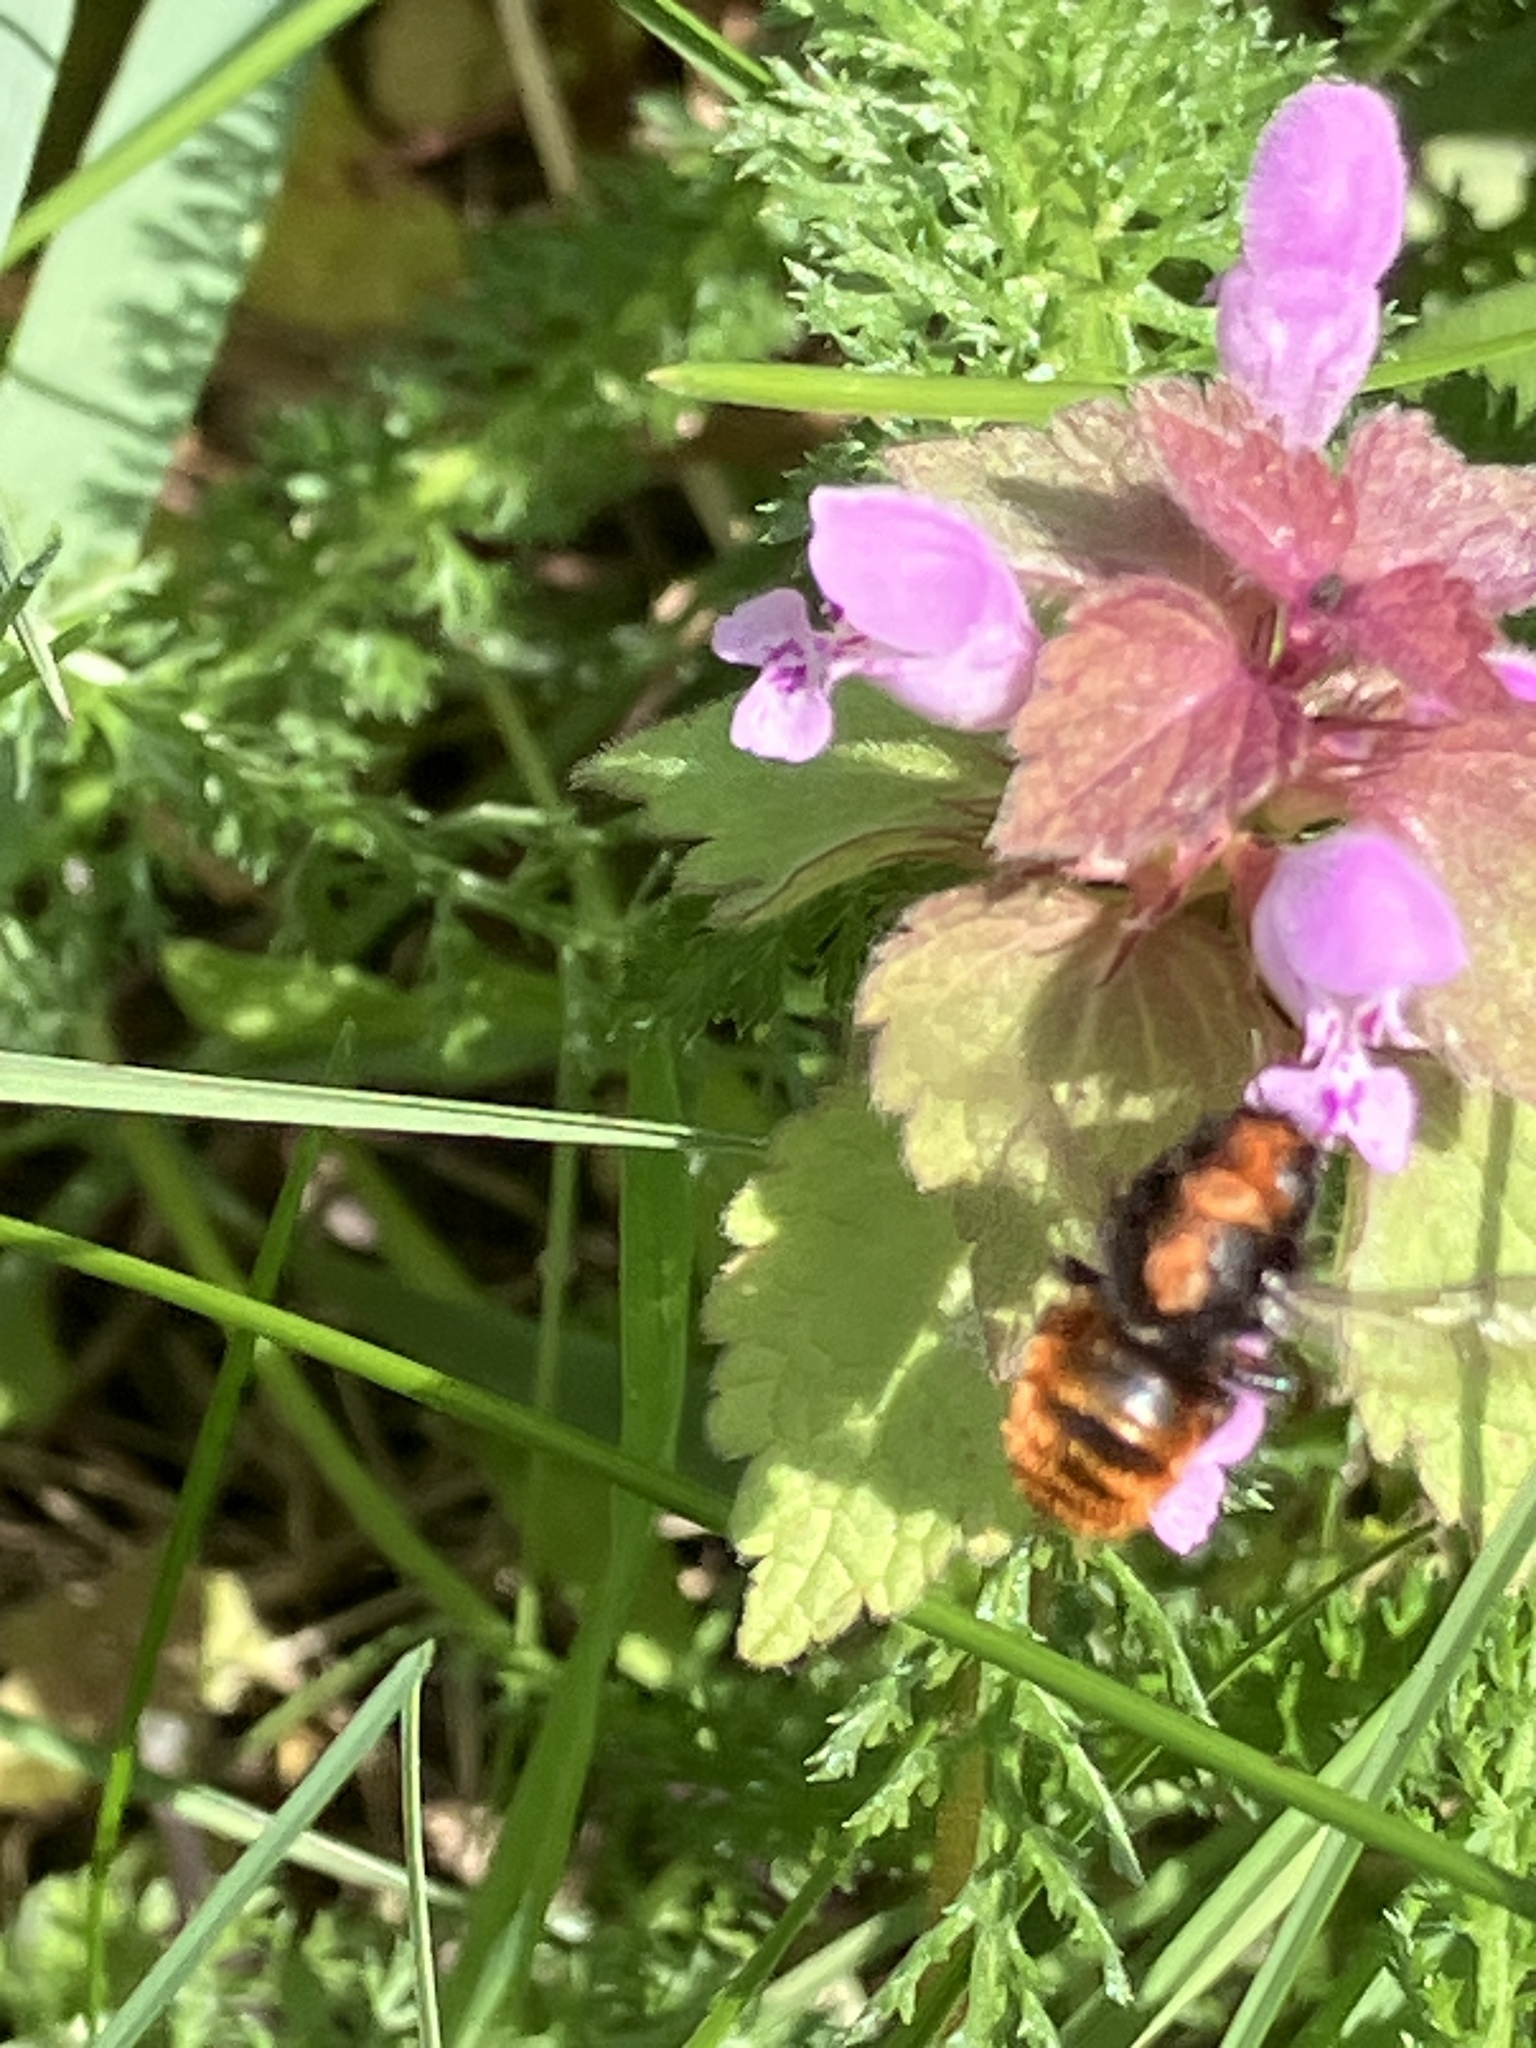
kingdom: Animalia
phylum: Arthropoda
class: Insecta
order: Hymenoptera
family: Megachilidae
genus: Osmia
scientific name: Osmia bicolor
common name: Red-tailed mason bee
